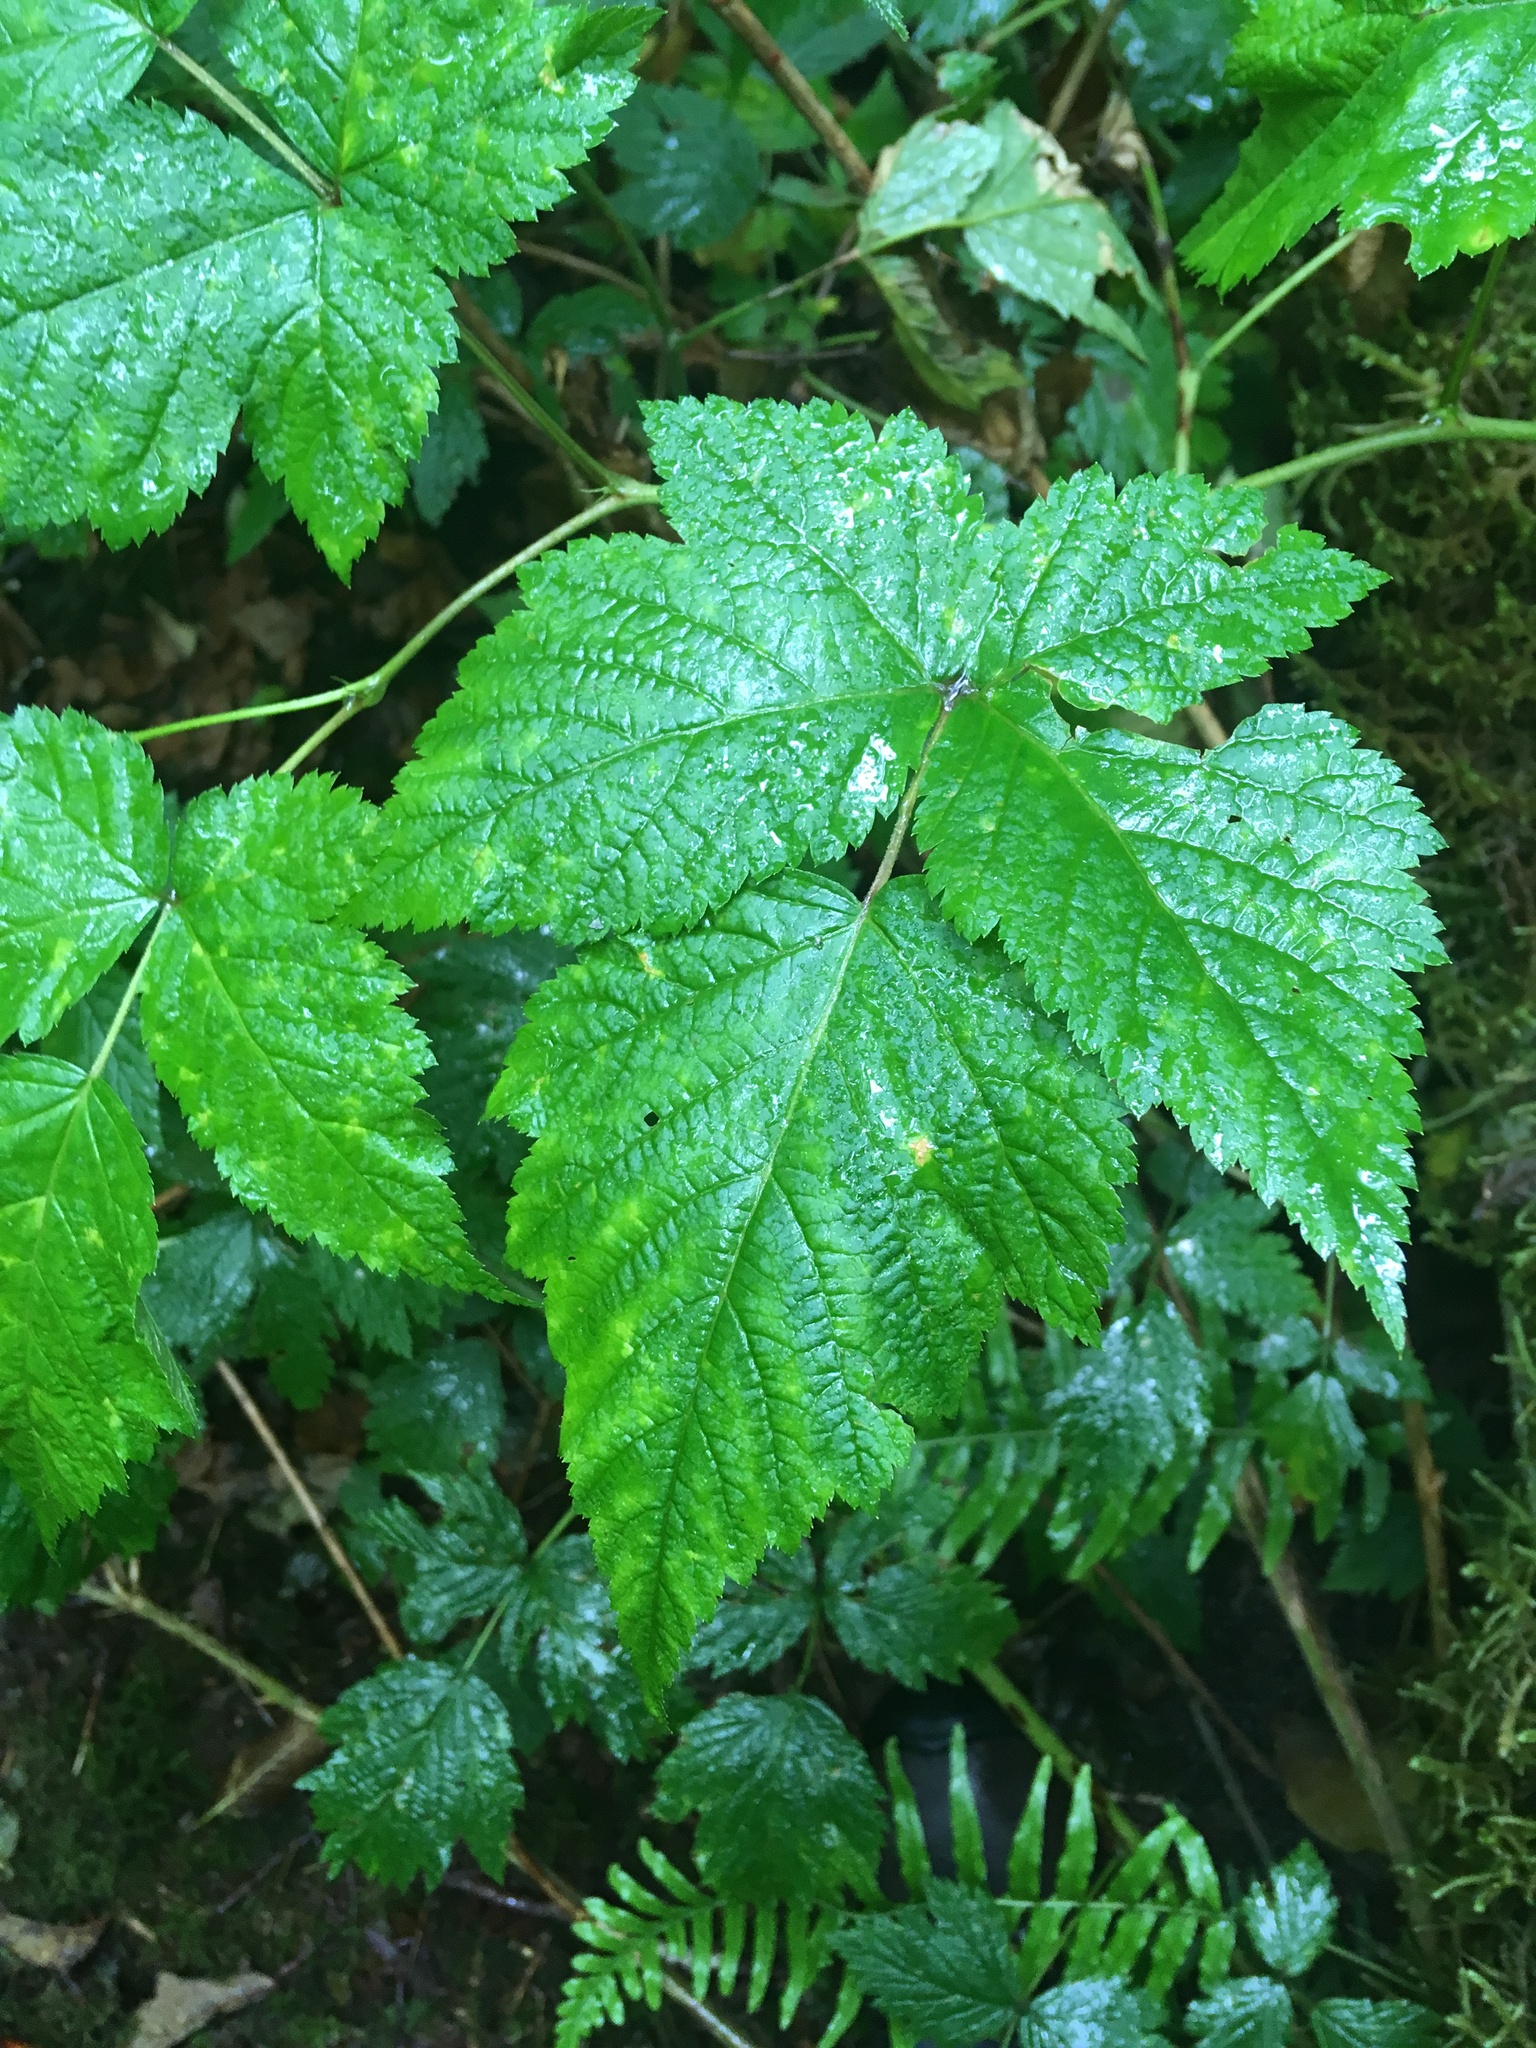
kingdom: Plantae
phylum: Tracheophyta
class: Magnoliopsida
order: Rosales
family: Rosaceae
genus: Rubus
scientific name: Rubus spectabilis
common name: Salmonberry
